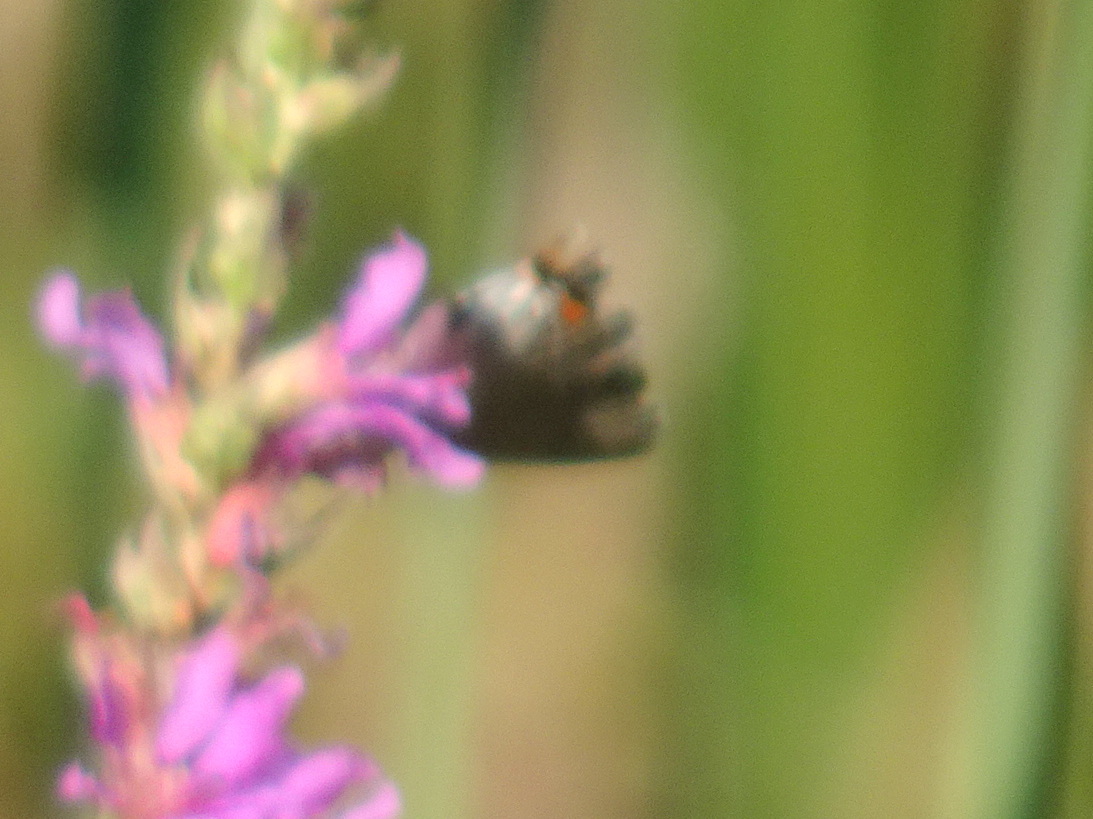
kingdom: Animalia
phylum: Arthropoda
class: Insecta
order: Lepidoptera
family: Lycaenidae
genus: Strymon
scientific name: Strymon melinus
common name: Gray hairstreak
